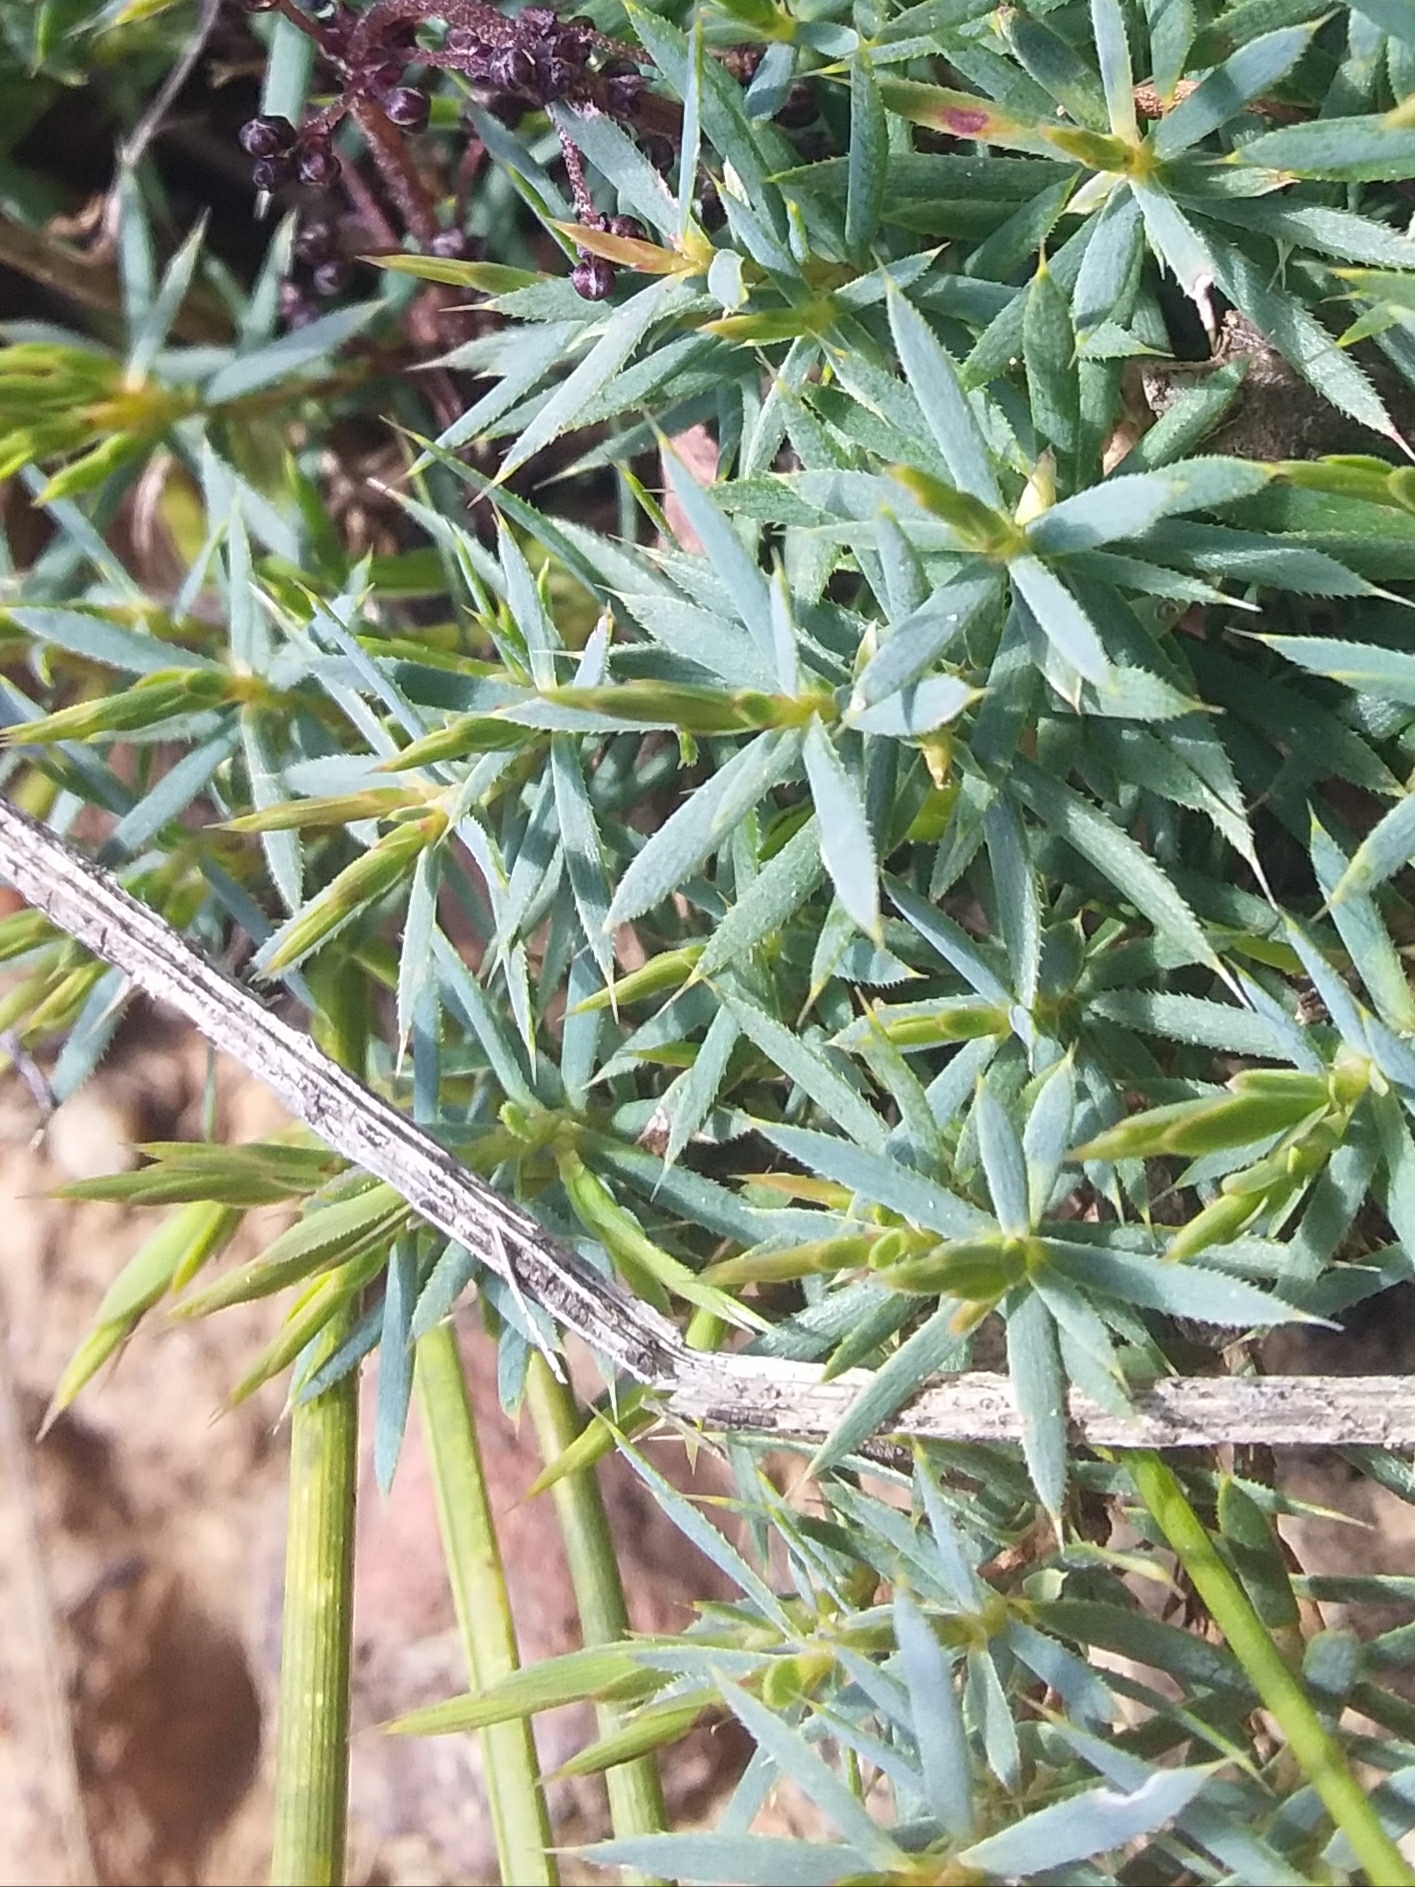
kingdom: Plantae
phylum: Tracheophyta
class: Magnoliopsida
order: Ericales
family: Ericaceae
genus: Styphelia
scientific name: Styphelia humifusa
